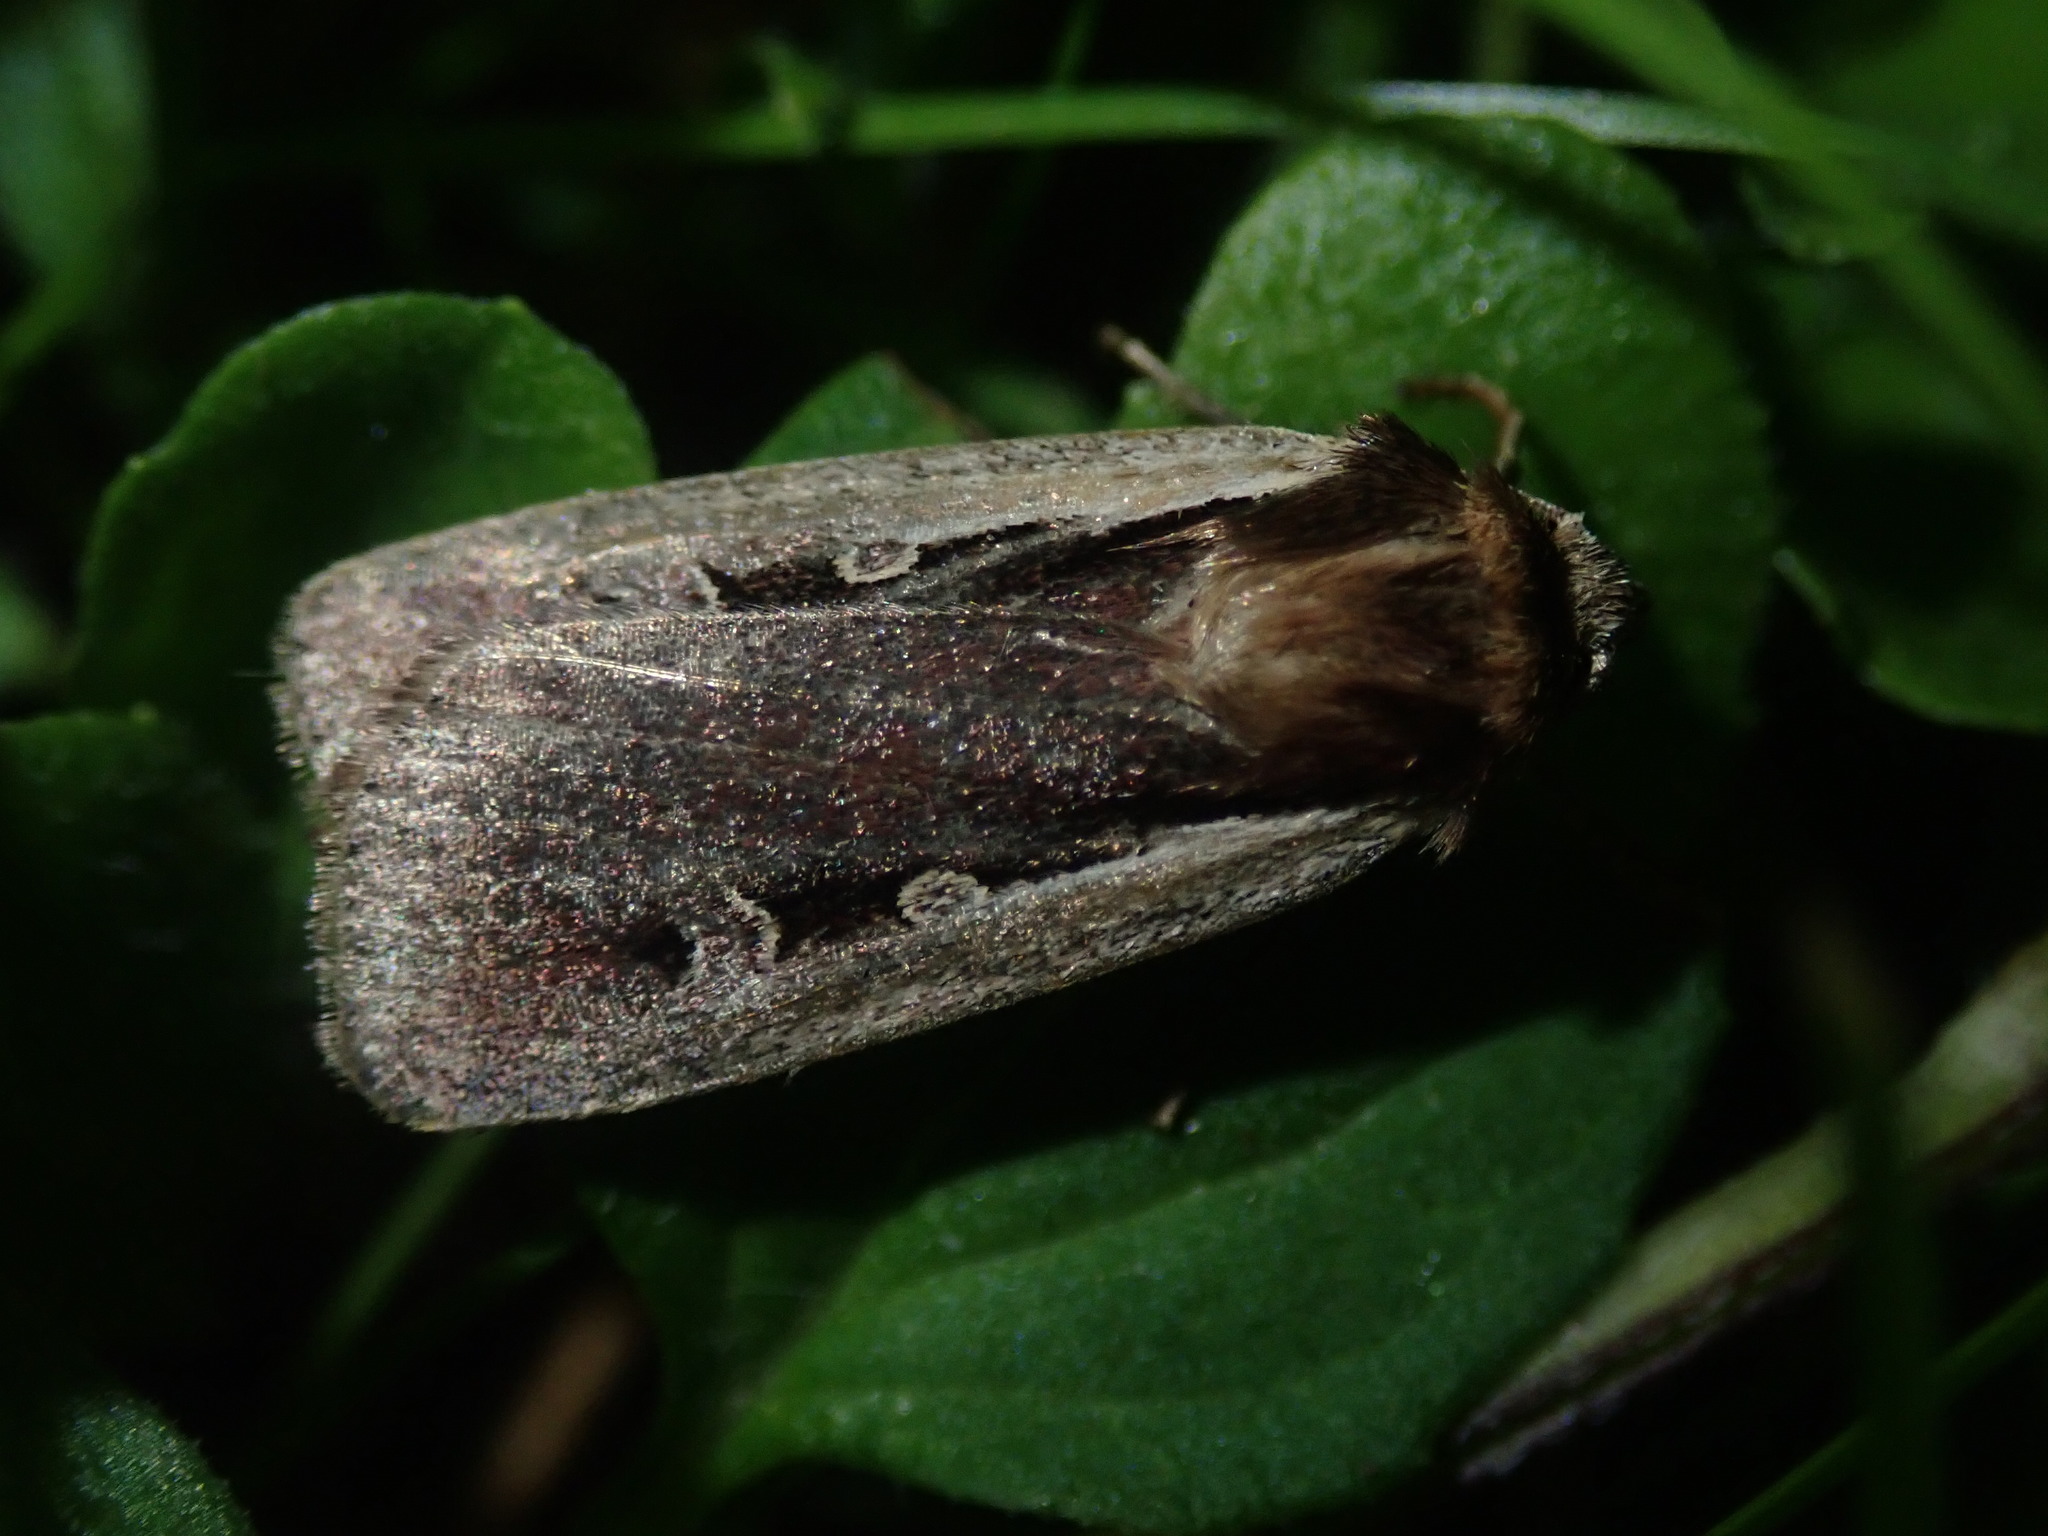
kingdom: Animalia
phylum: Arthropoda
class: Insecta
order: Lepidoptera
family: Noctuidae
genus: Ochropleura
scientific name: Ochropleura plecta
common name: Flame shoulder
